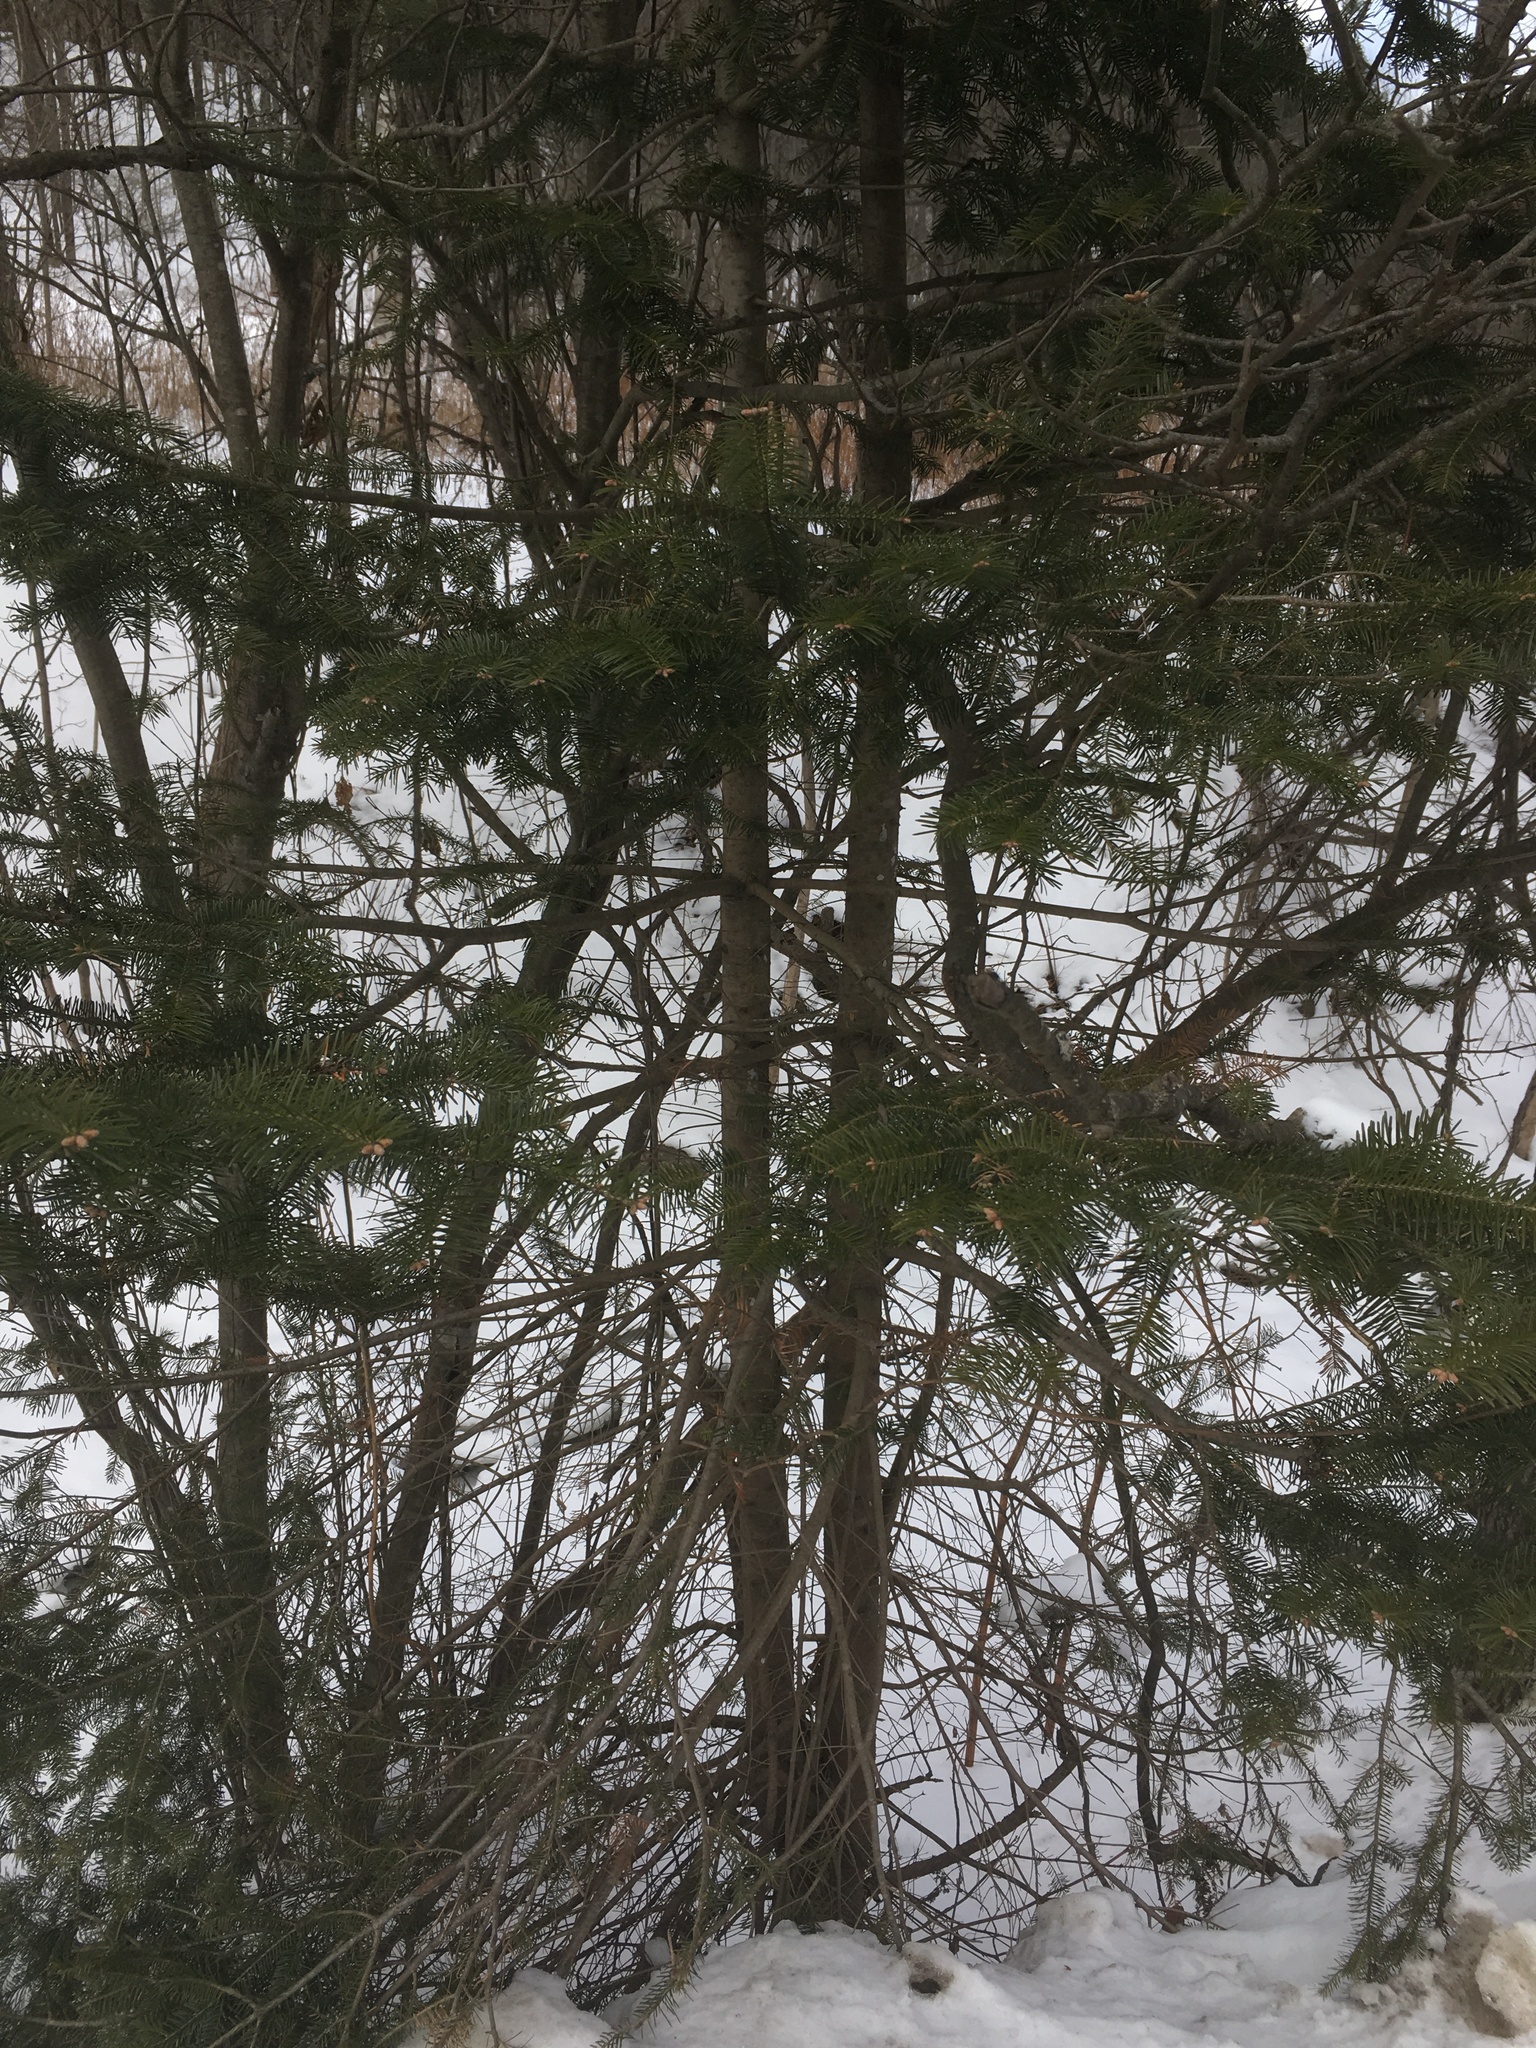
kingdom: Plantae
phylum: Tracheophyta
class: Pinopsida
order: Pinales
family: Pinaceae
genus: Abies
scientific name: Abies balsamea
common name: Balsam fir
